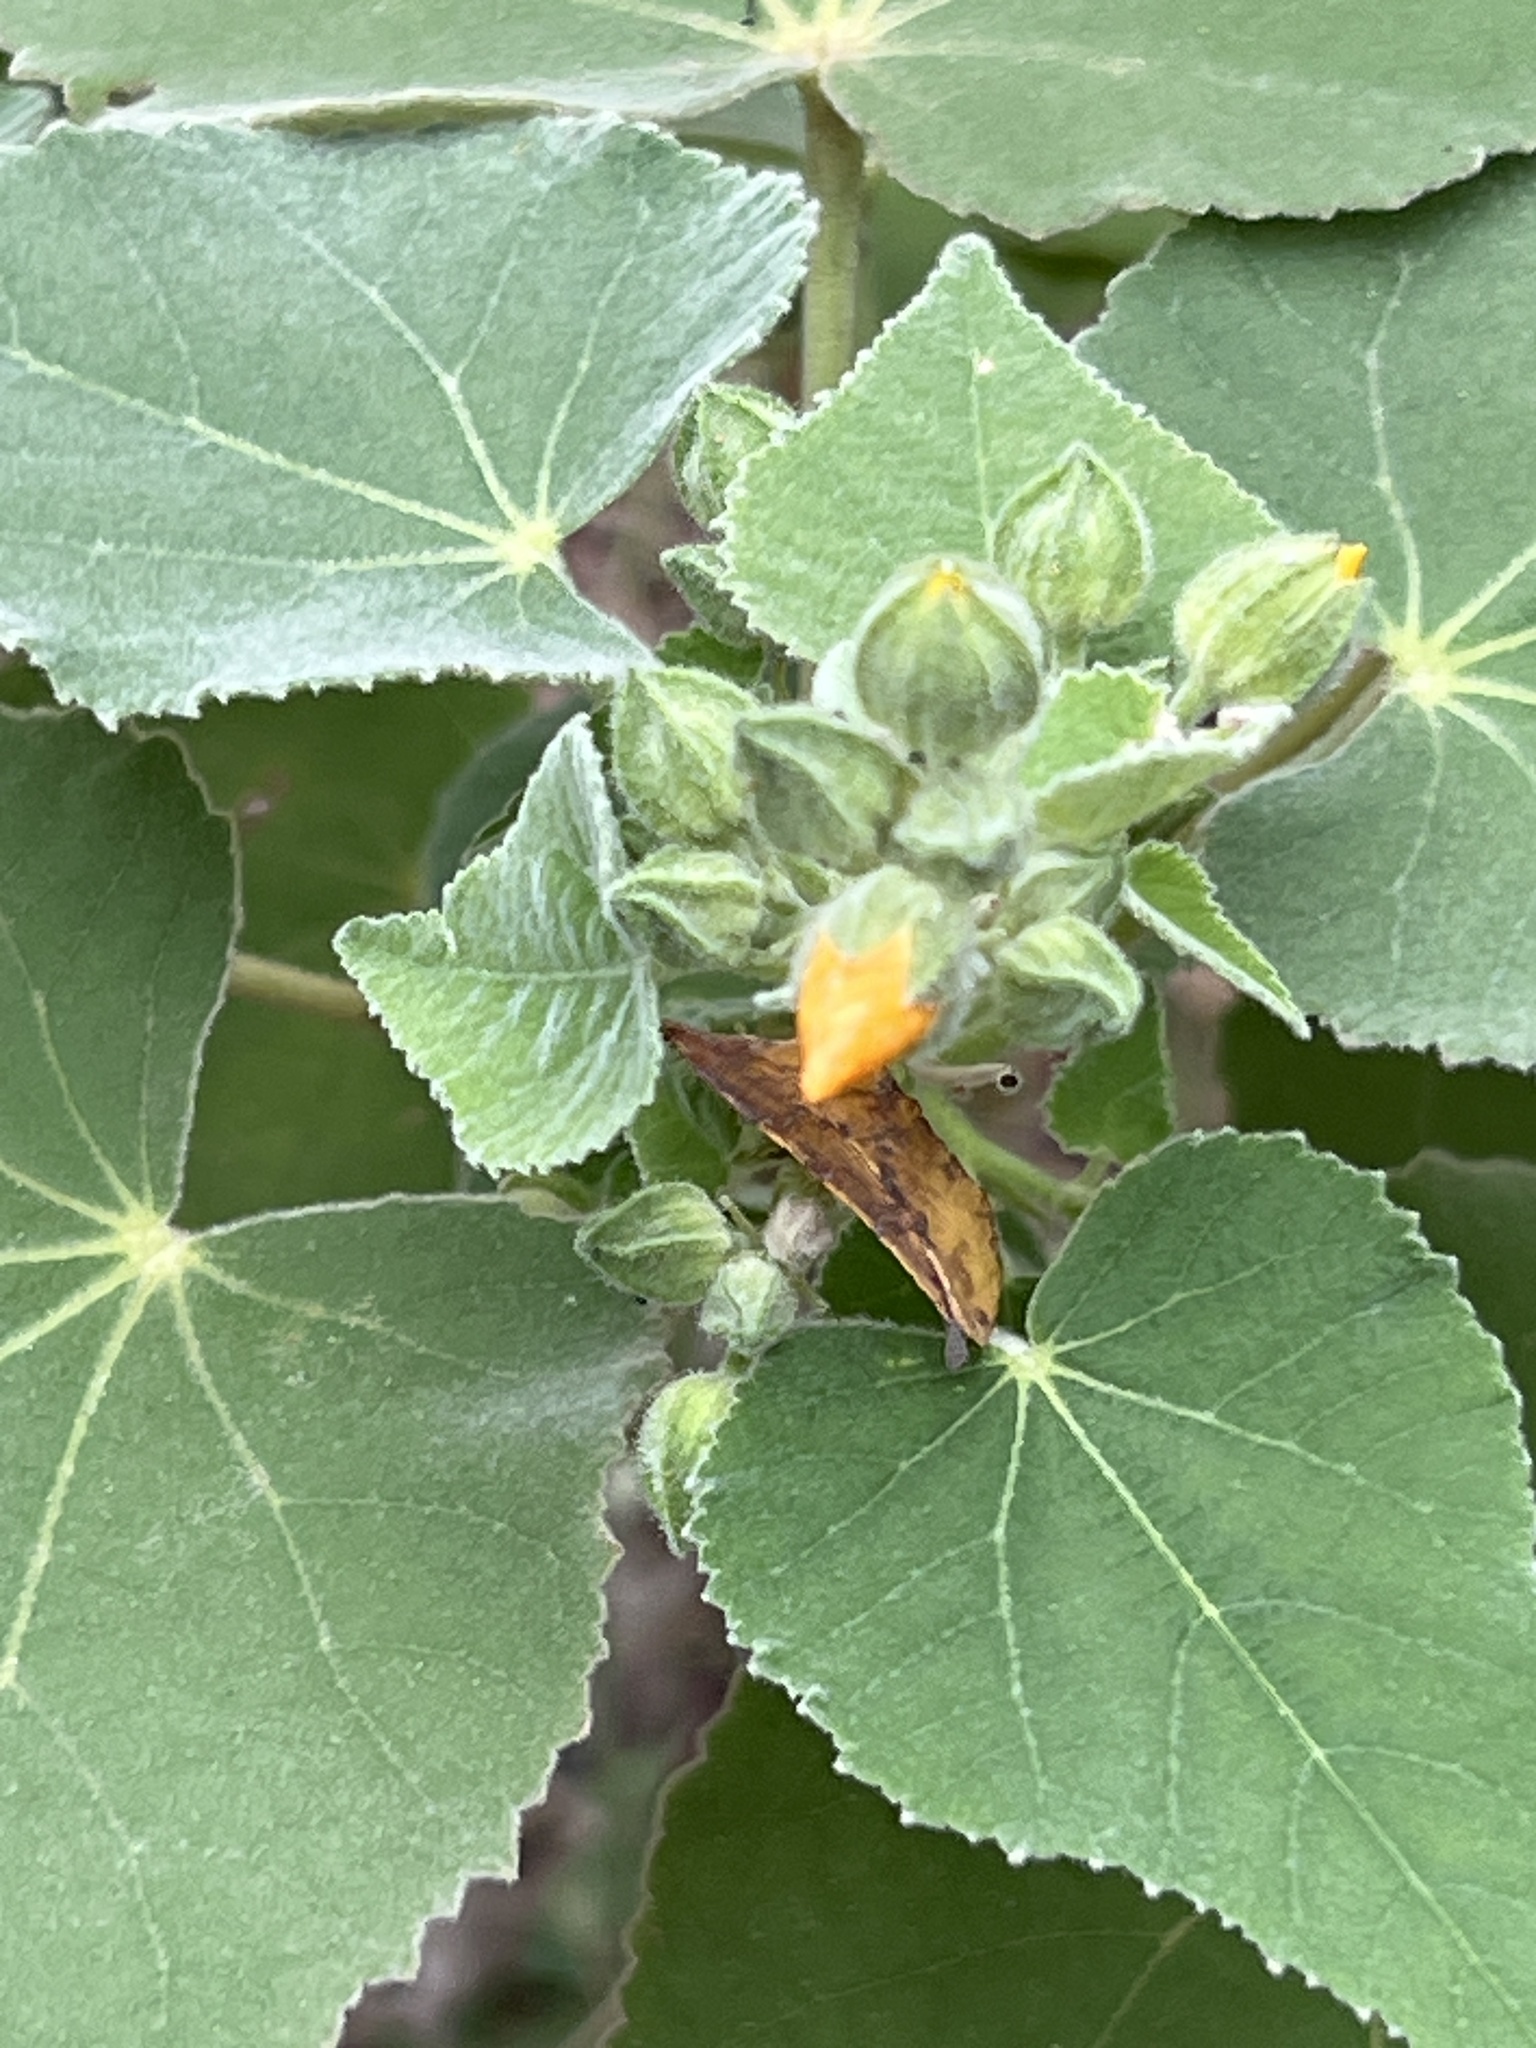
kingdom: Plantae
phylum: Tracheophyta
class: Magnoliopsida
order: Malvales
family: Malvaceae
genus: Allowissadula
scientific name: Allowissadula holosericea
